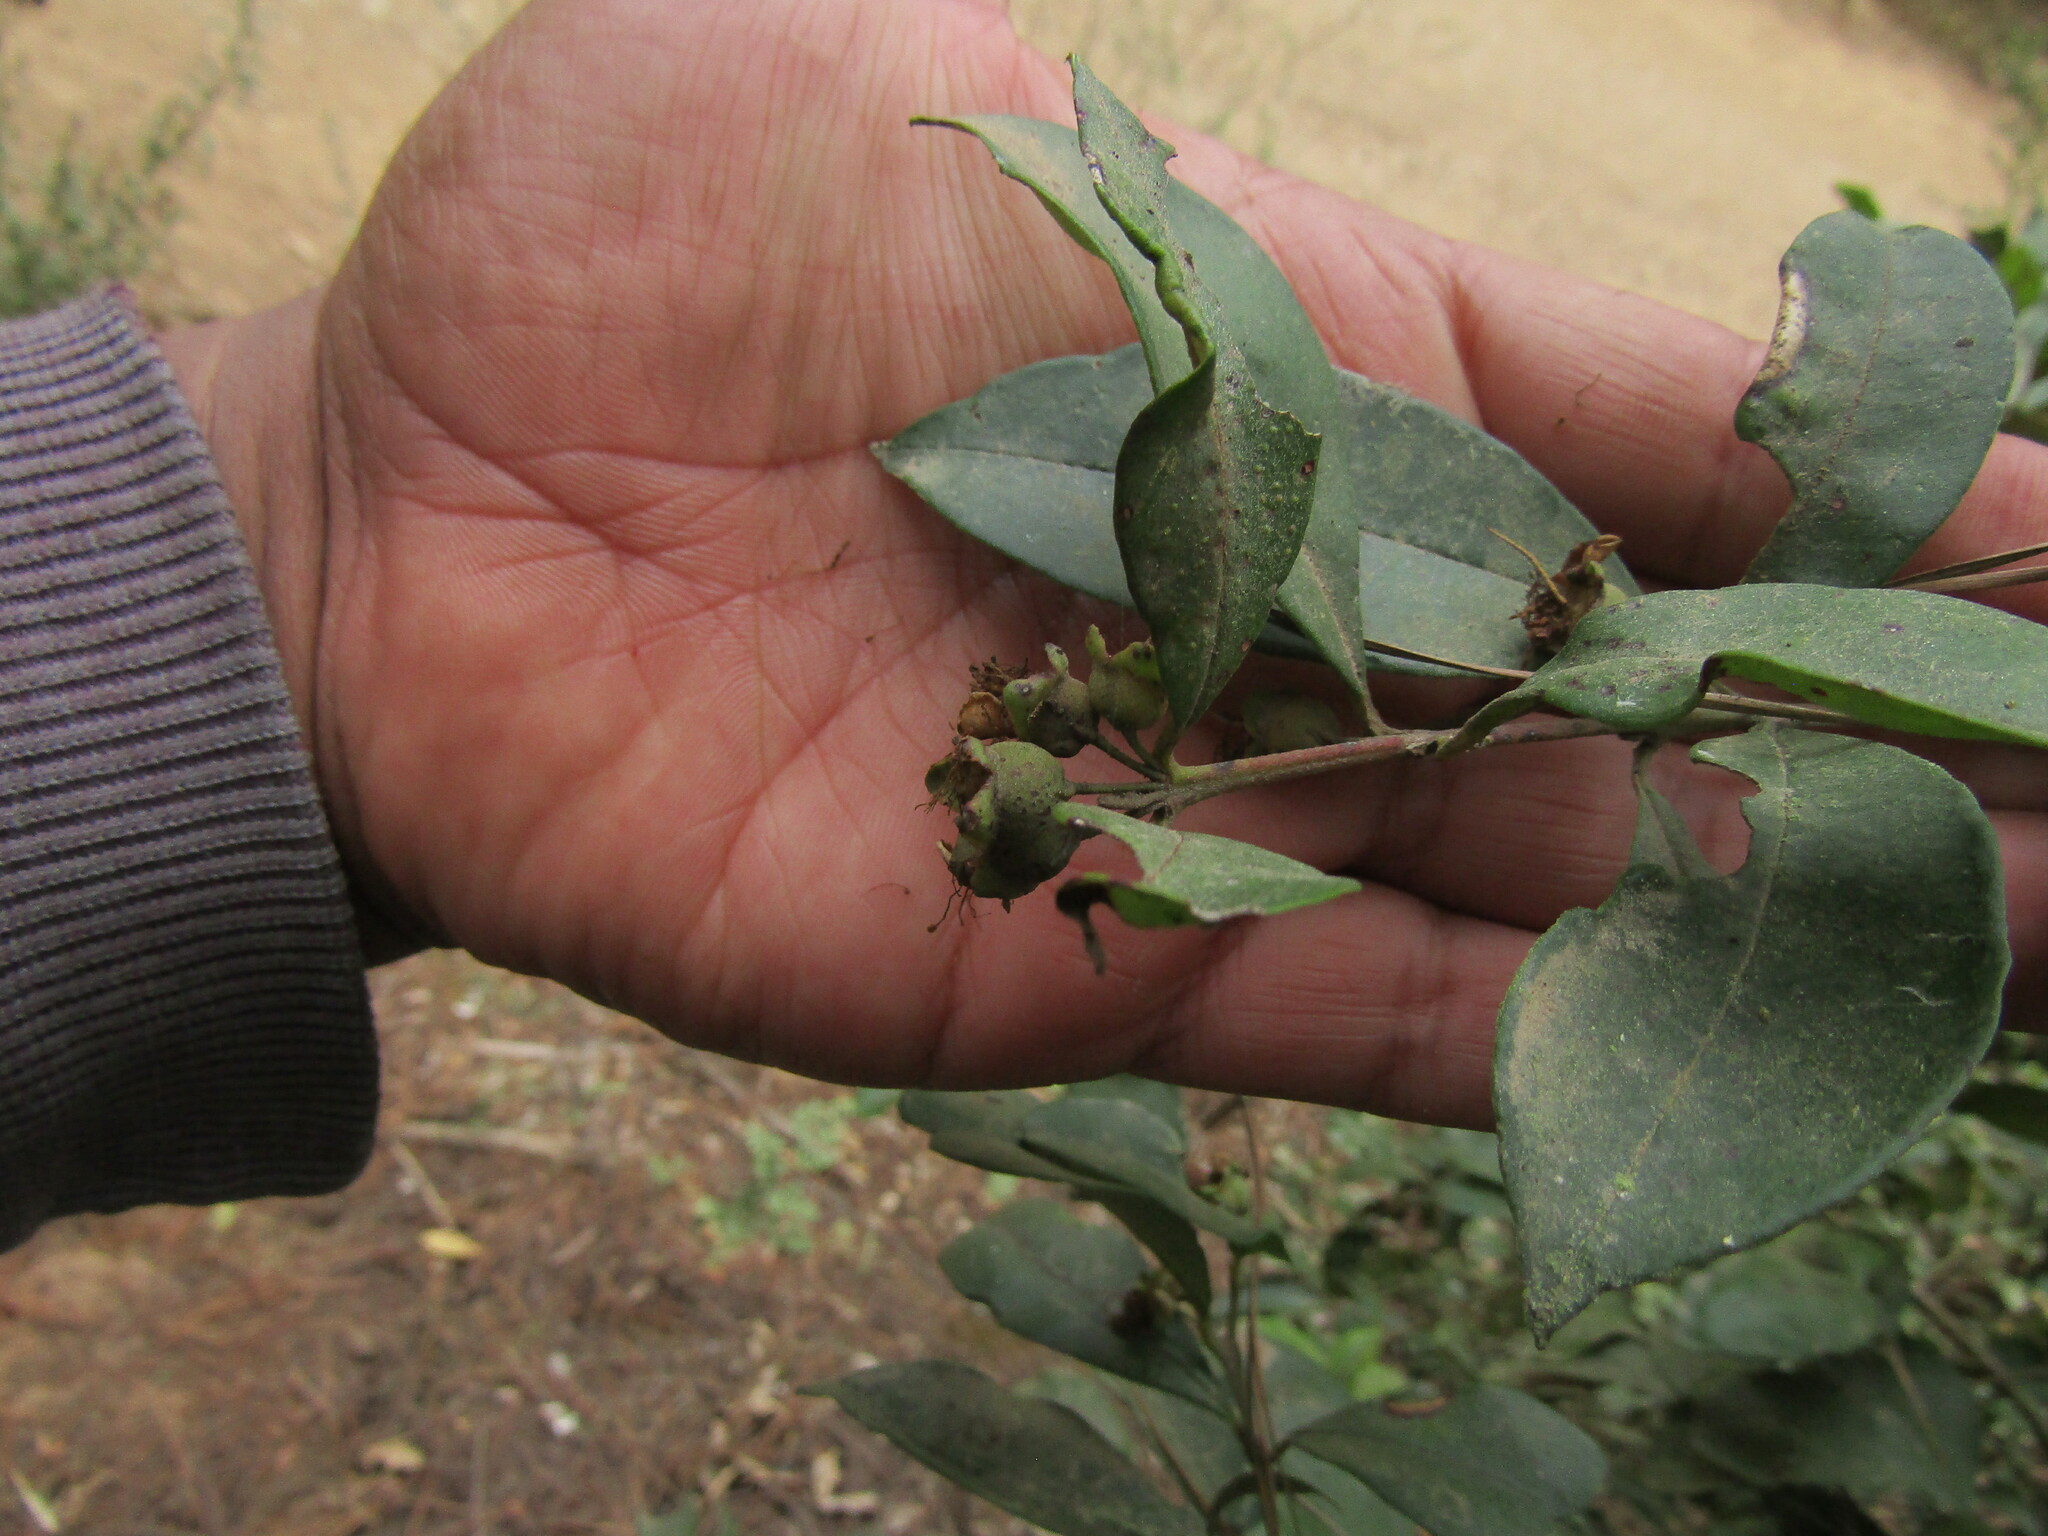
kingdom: Plantae
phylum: Tracheophyta
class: Magnoliopsida
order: Myrtales
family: Myrtaceae
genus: Myrceugenia
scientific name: Myrceugenia planipes
